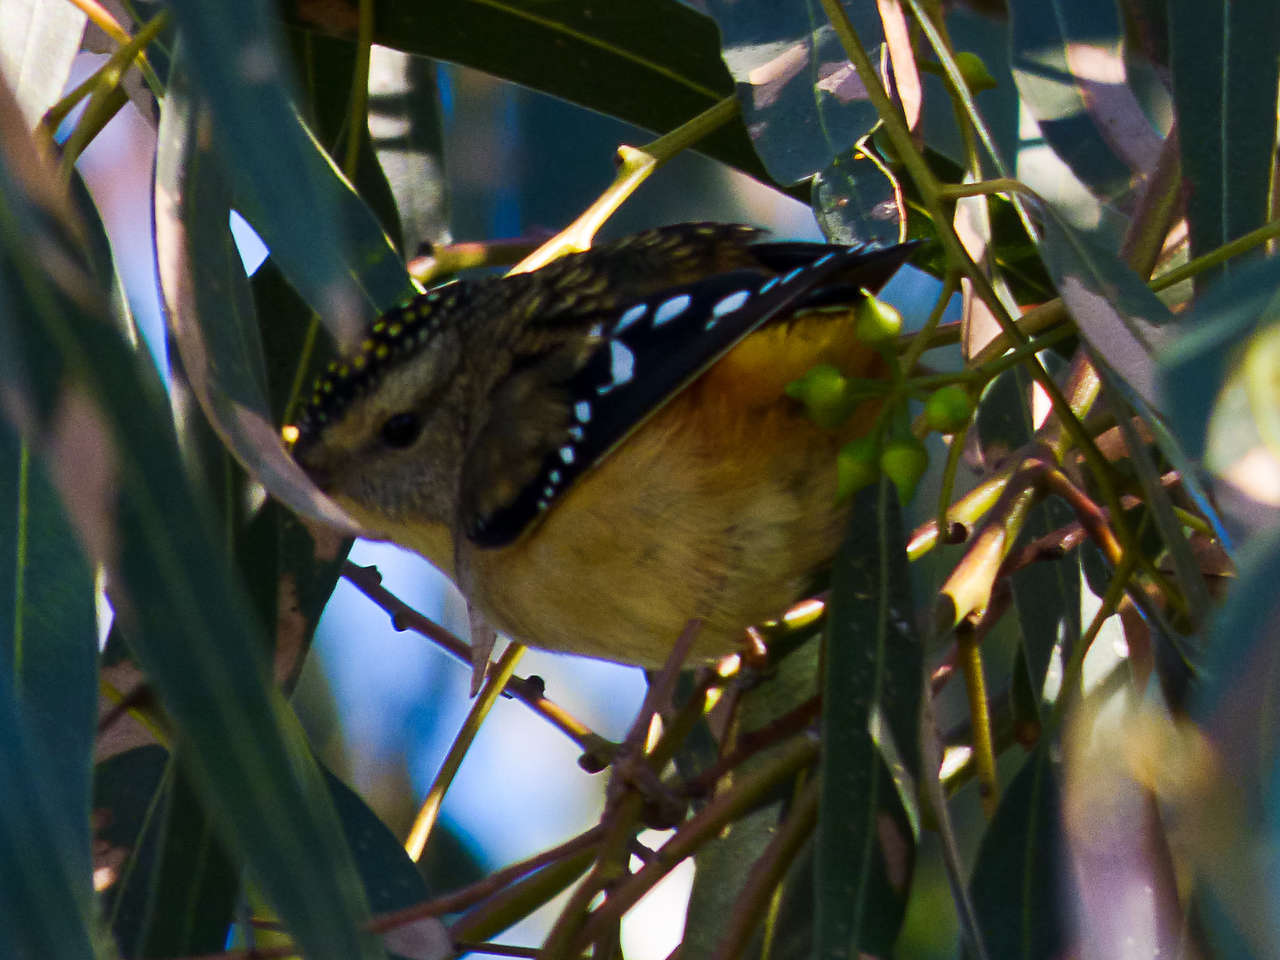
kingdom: Animalia
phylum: Chordata
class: Aves
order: Passeriformes
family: Pardalotidae
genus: Pardalotus
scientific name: Pardalotus punctatus
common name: Spotted pardalote
